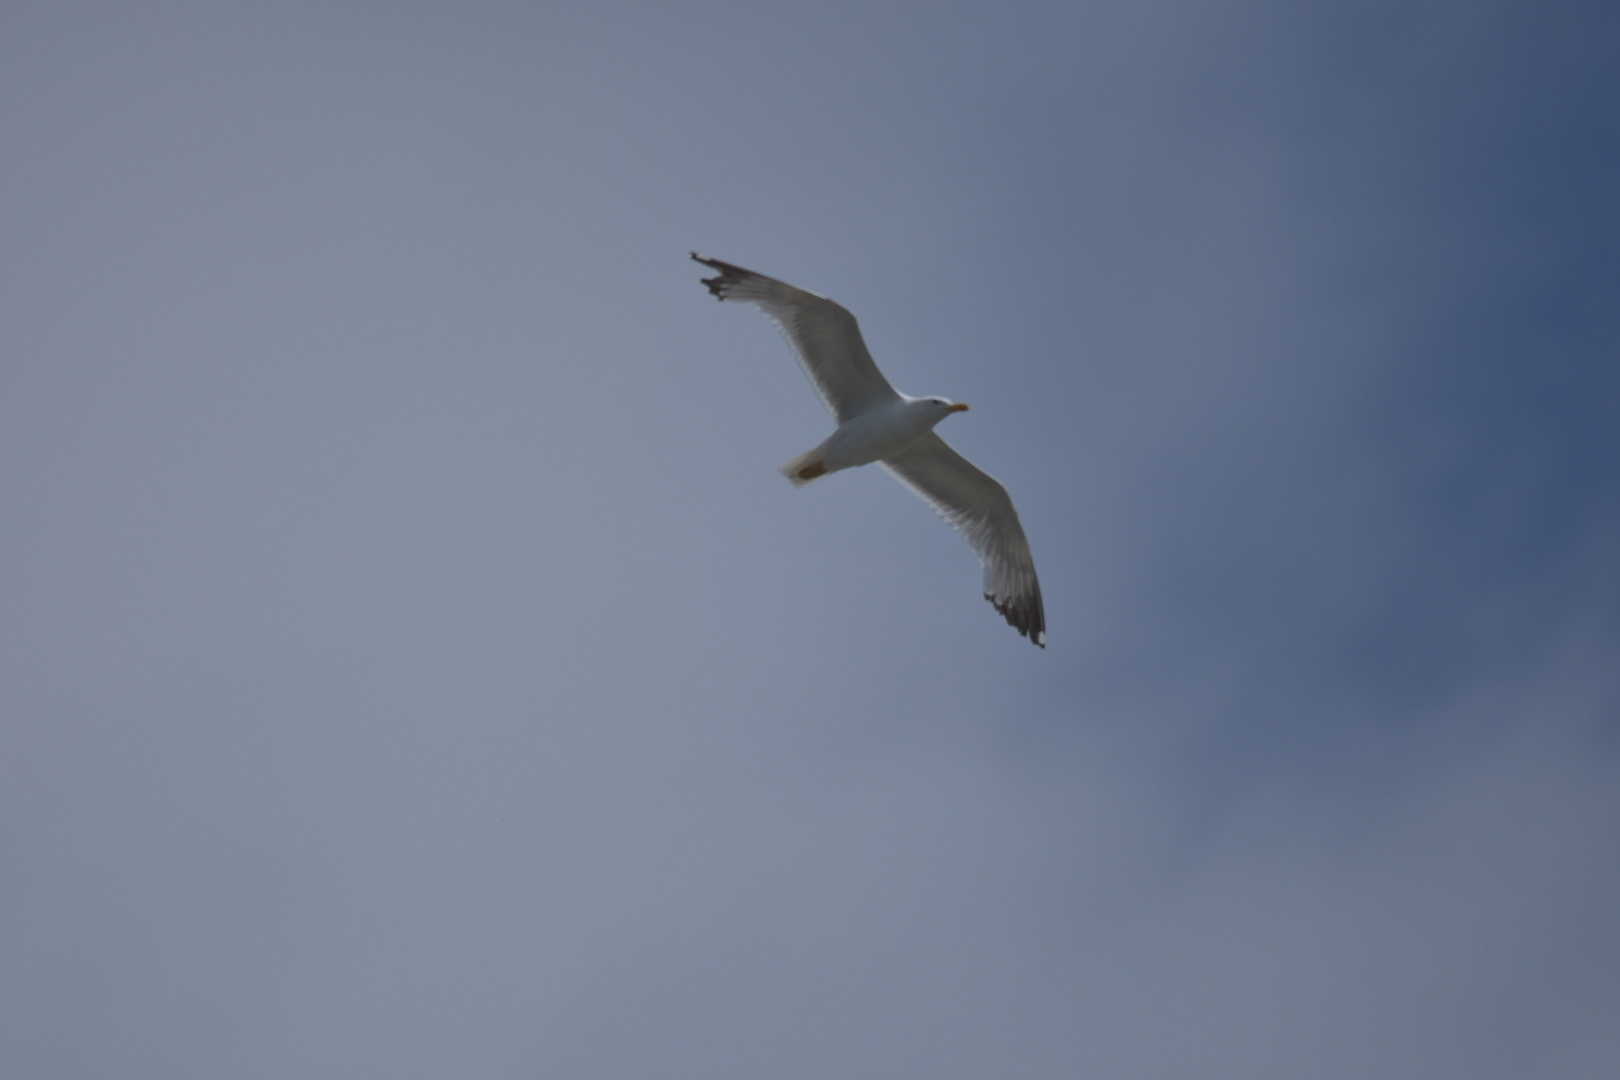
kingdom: Animalia
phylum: Chordata
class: Aves
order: Charadriiformes
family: Laridae
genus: Larus
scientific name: Larus michahellis
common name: Yellow-legged gull
